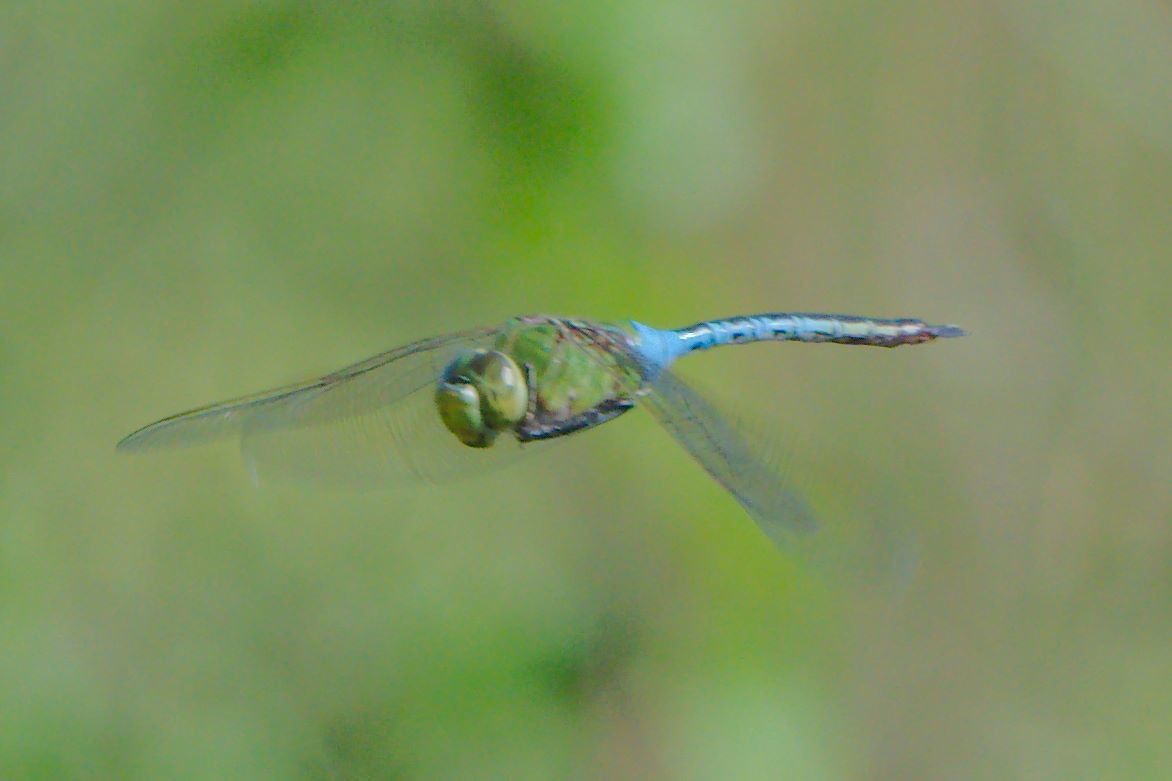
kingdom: Animalia
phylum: Arthropoda
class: Insecta
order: Odonata
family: Aeshnidae
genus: Anax
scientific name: Anax junius
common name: Common green darner
